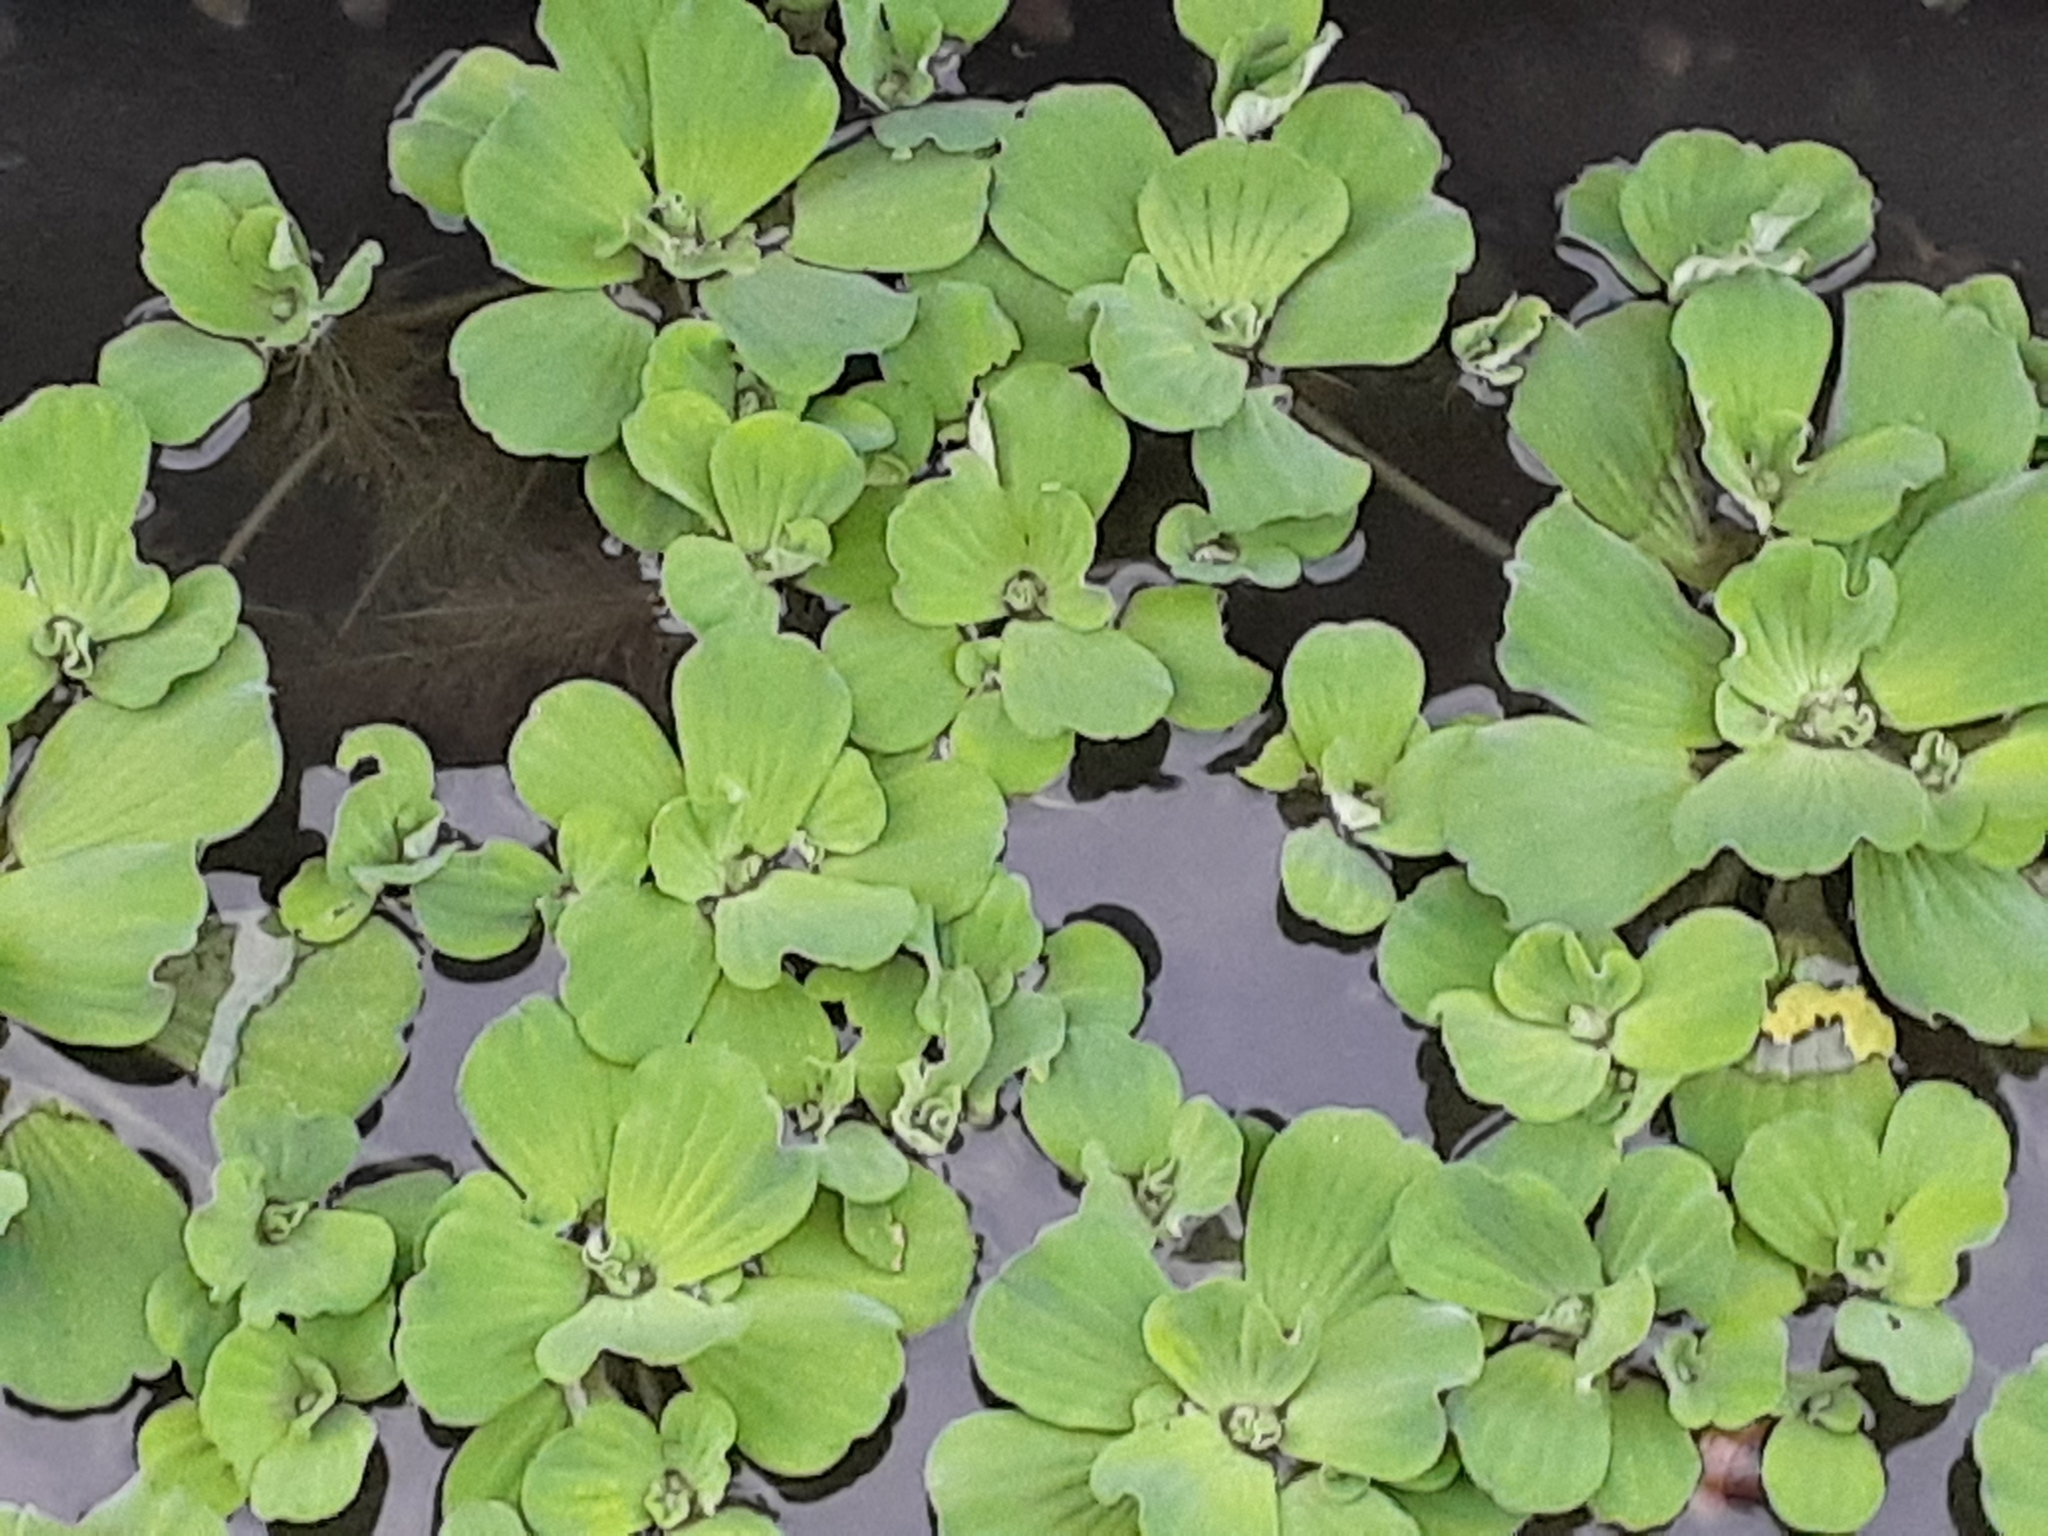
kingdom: Plantae
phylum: Tracheophyta
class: Liliopsida
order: Alismatales
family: Araceae
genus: Pistia
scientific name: Pistia stratiotes
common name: Water lettuce
